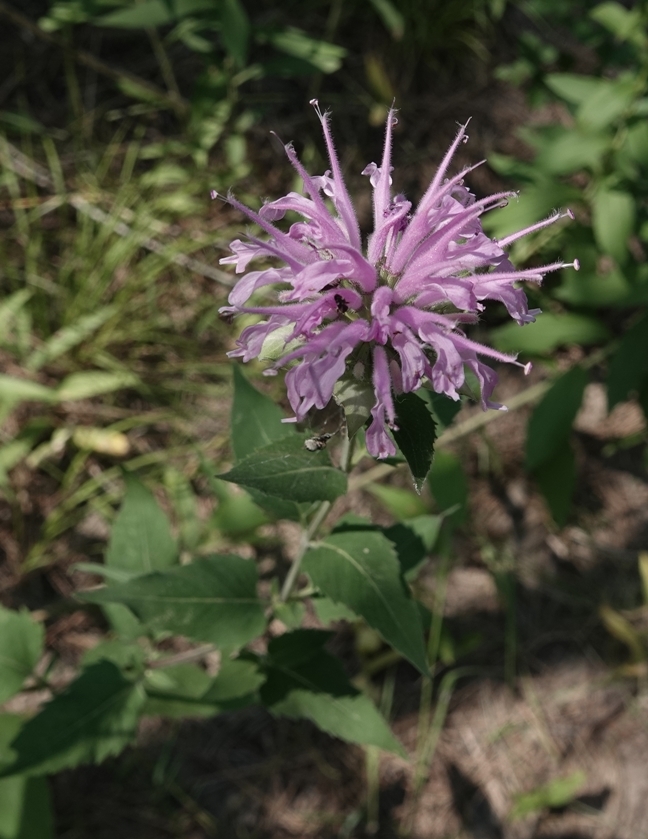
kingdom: Plantae
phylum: Tracheophyta
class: Magnoliopsida
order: Lamiales
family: Lamiaceae
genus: Monarda
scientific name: Monarda fistulosa
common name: Purple beebalm
